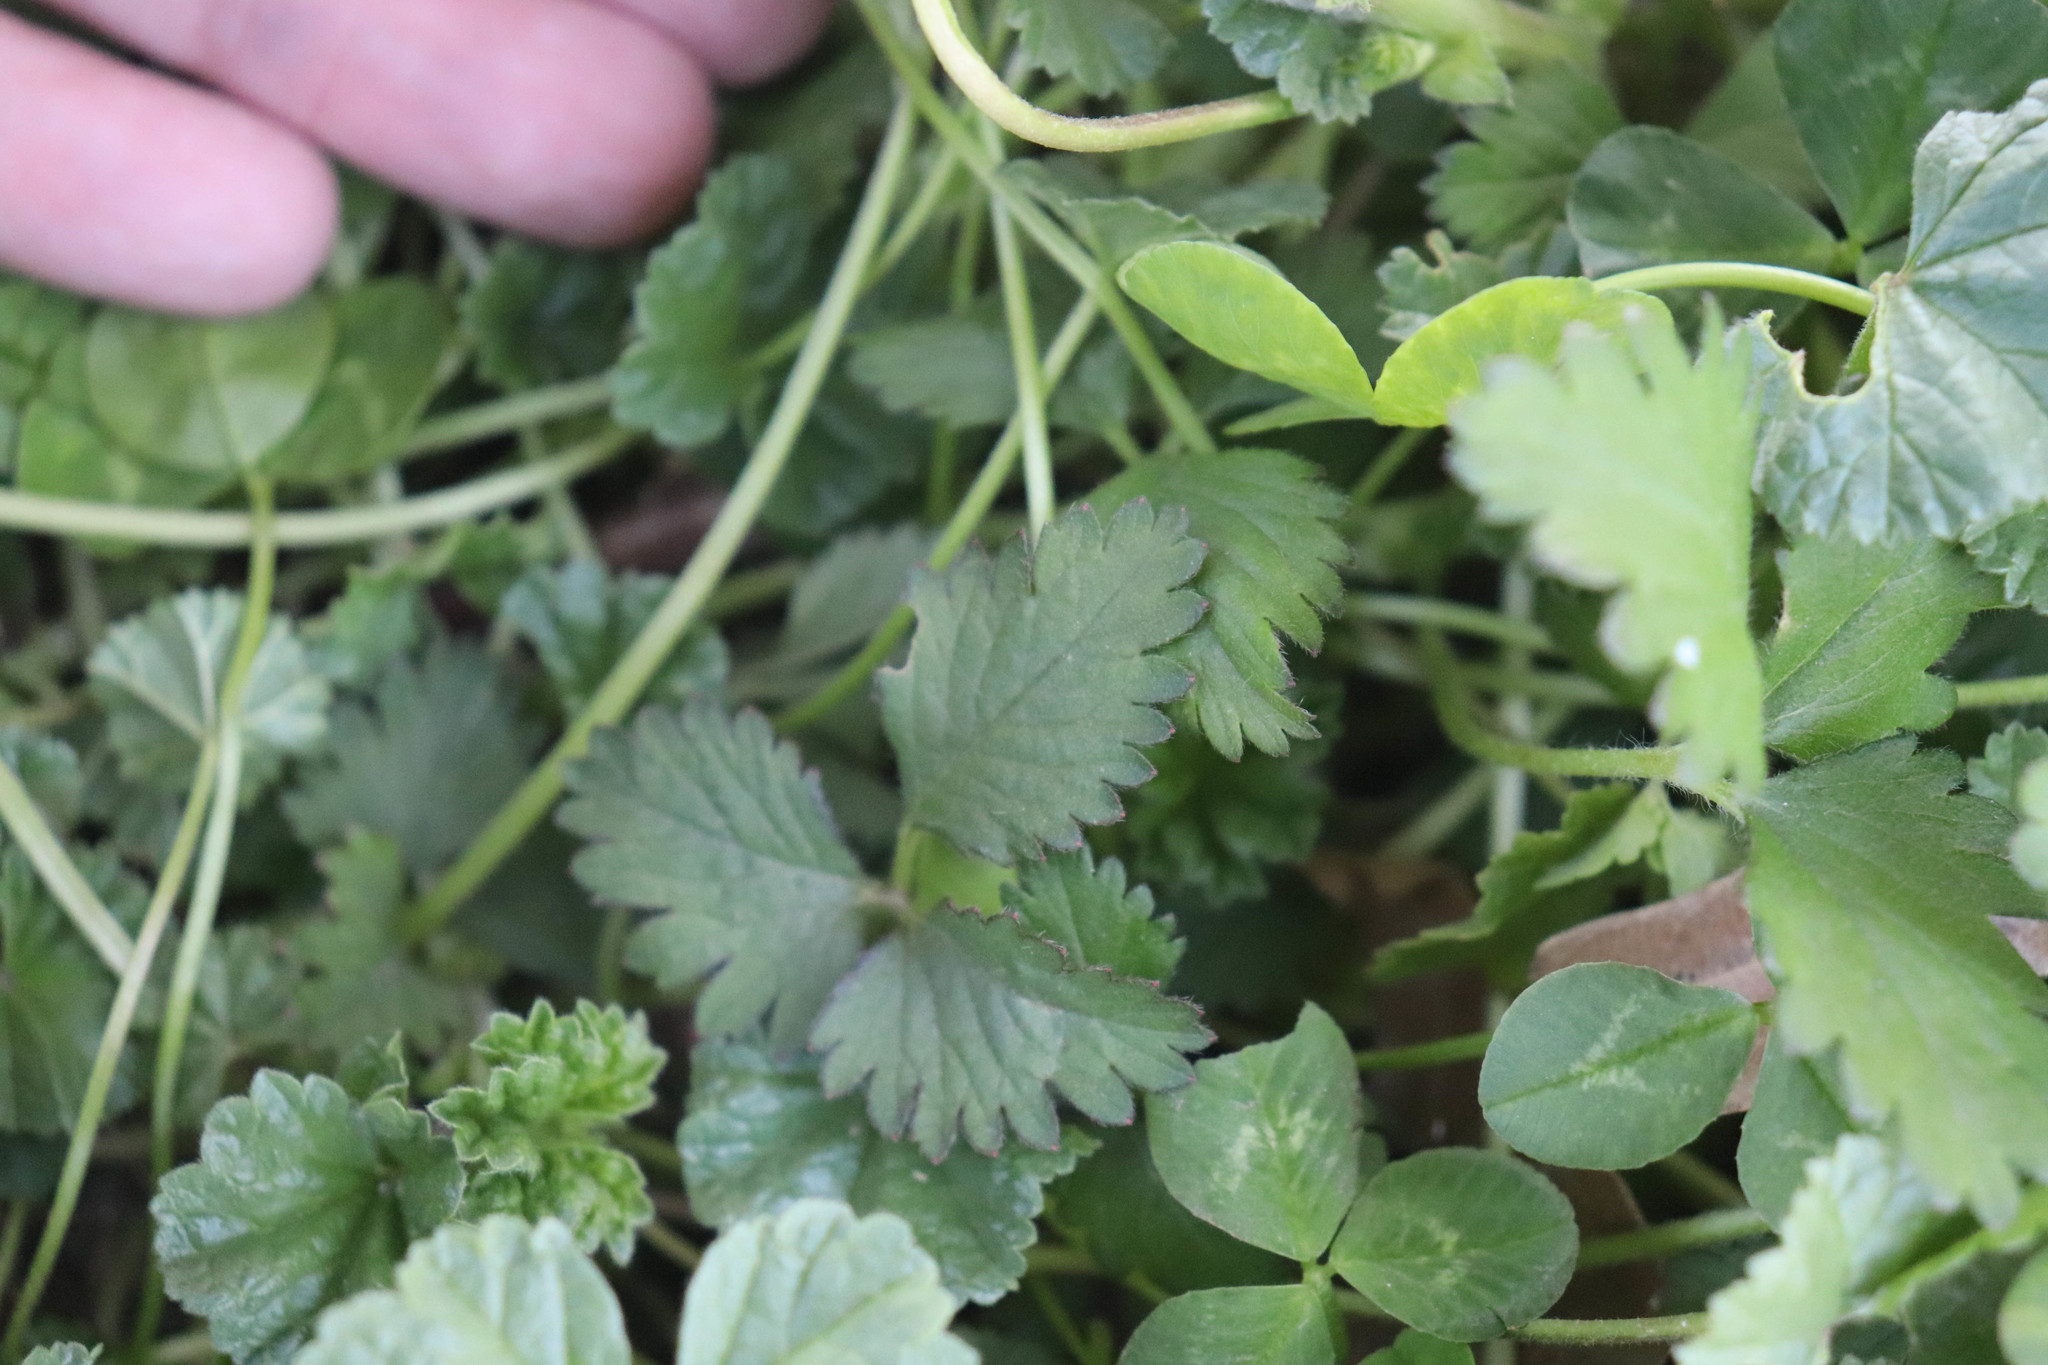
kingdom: Plantae
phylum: Tracheophyta
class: Magnoliopsida
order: Rosales
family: Rosaceae
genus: Potentilla
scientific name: Potentilla indica
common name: Yellow-flowered strawberry
